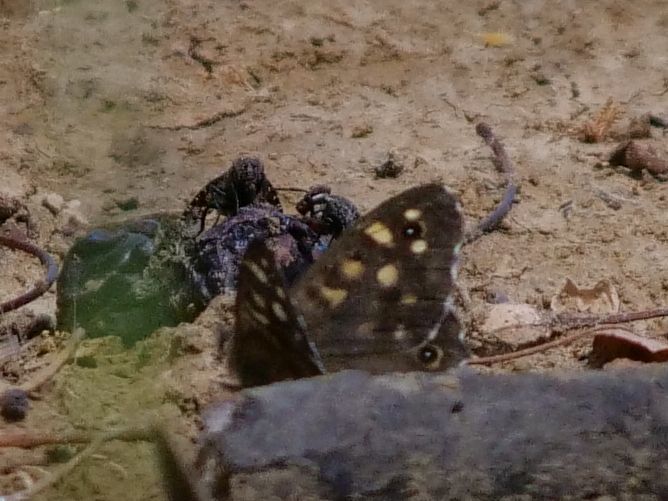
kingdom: Animalia
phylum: Arthropoda
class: Insecta
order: Lepidoptera
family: Nymphalidae
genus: Pararge
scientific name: Pararge aegeria
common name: Speckled wood
